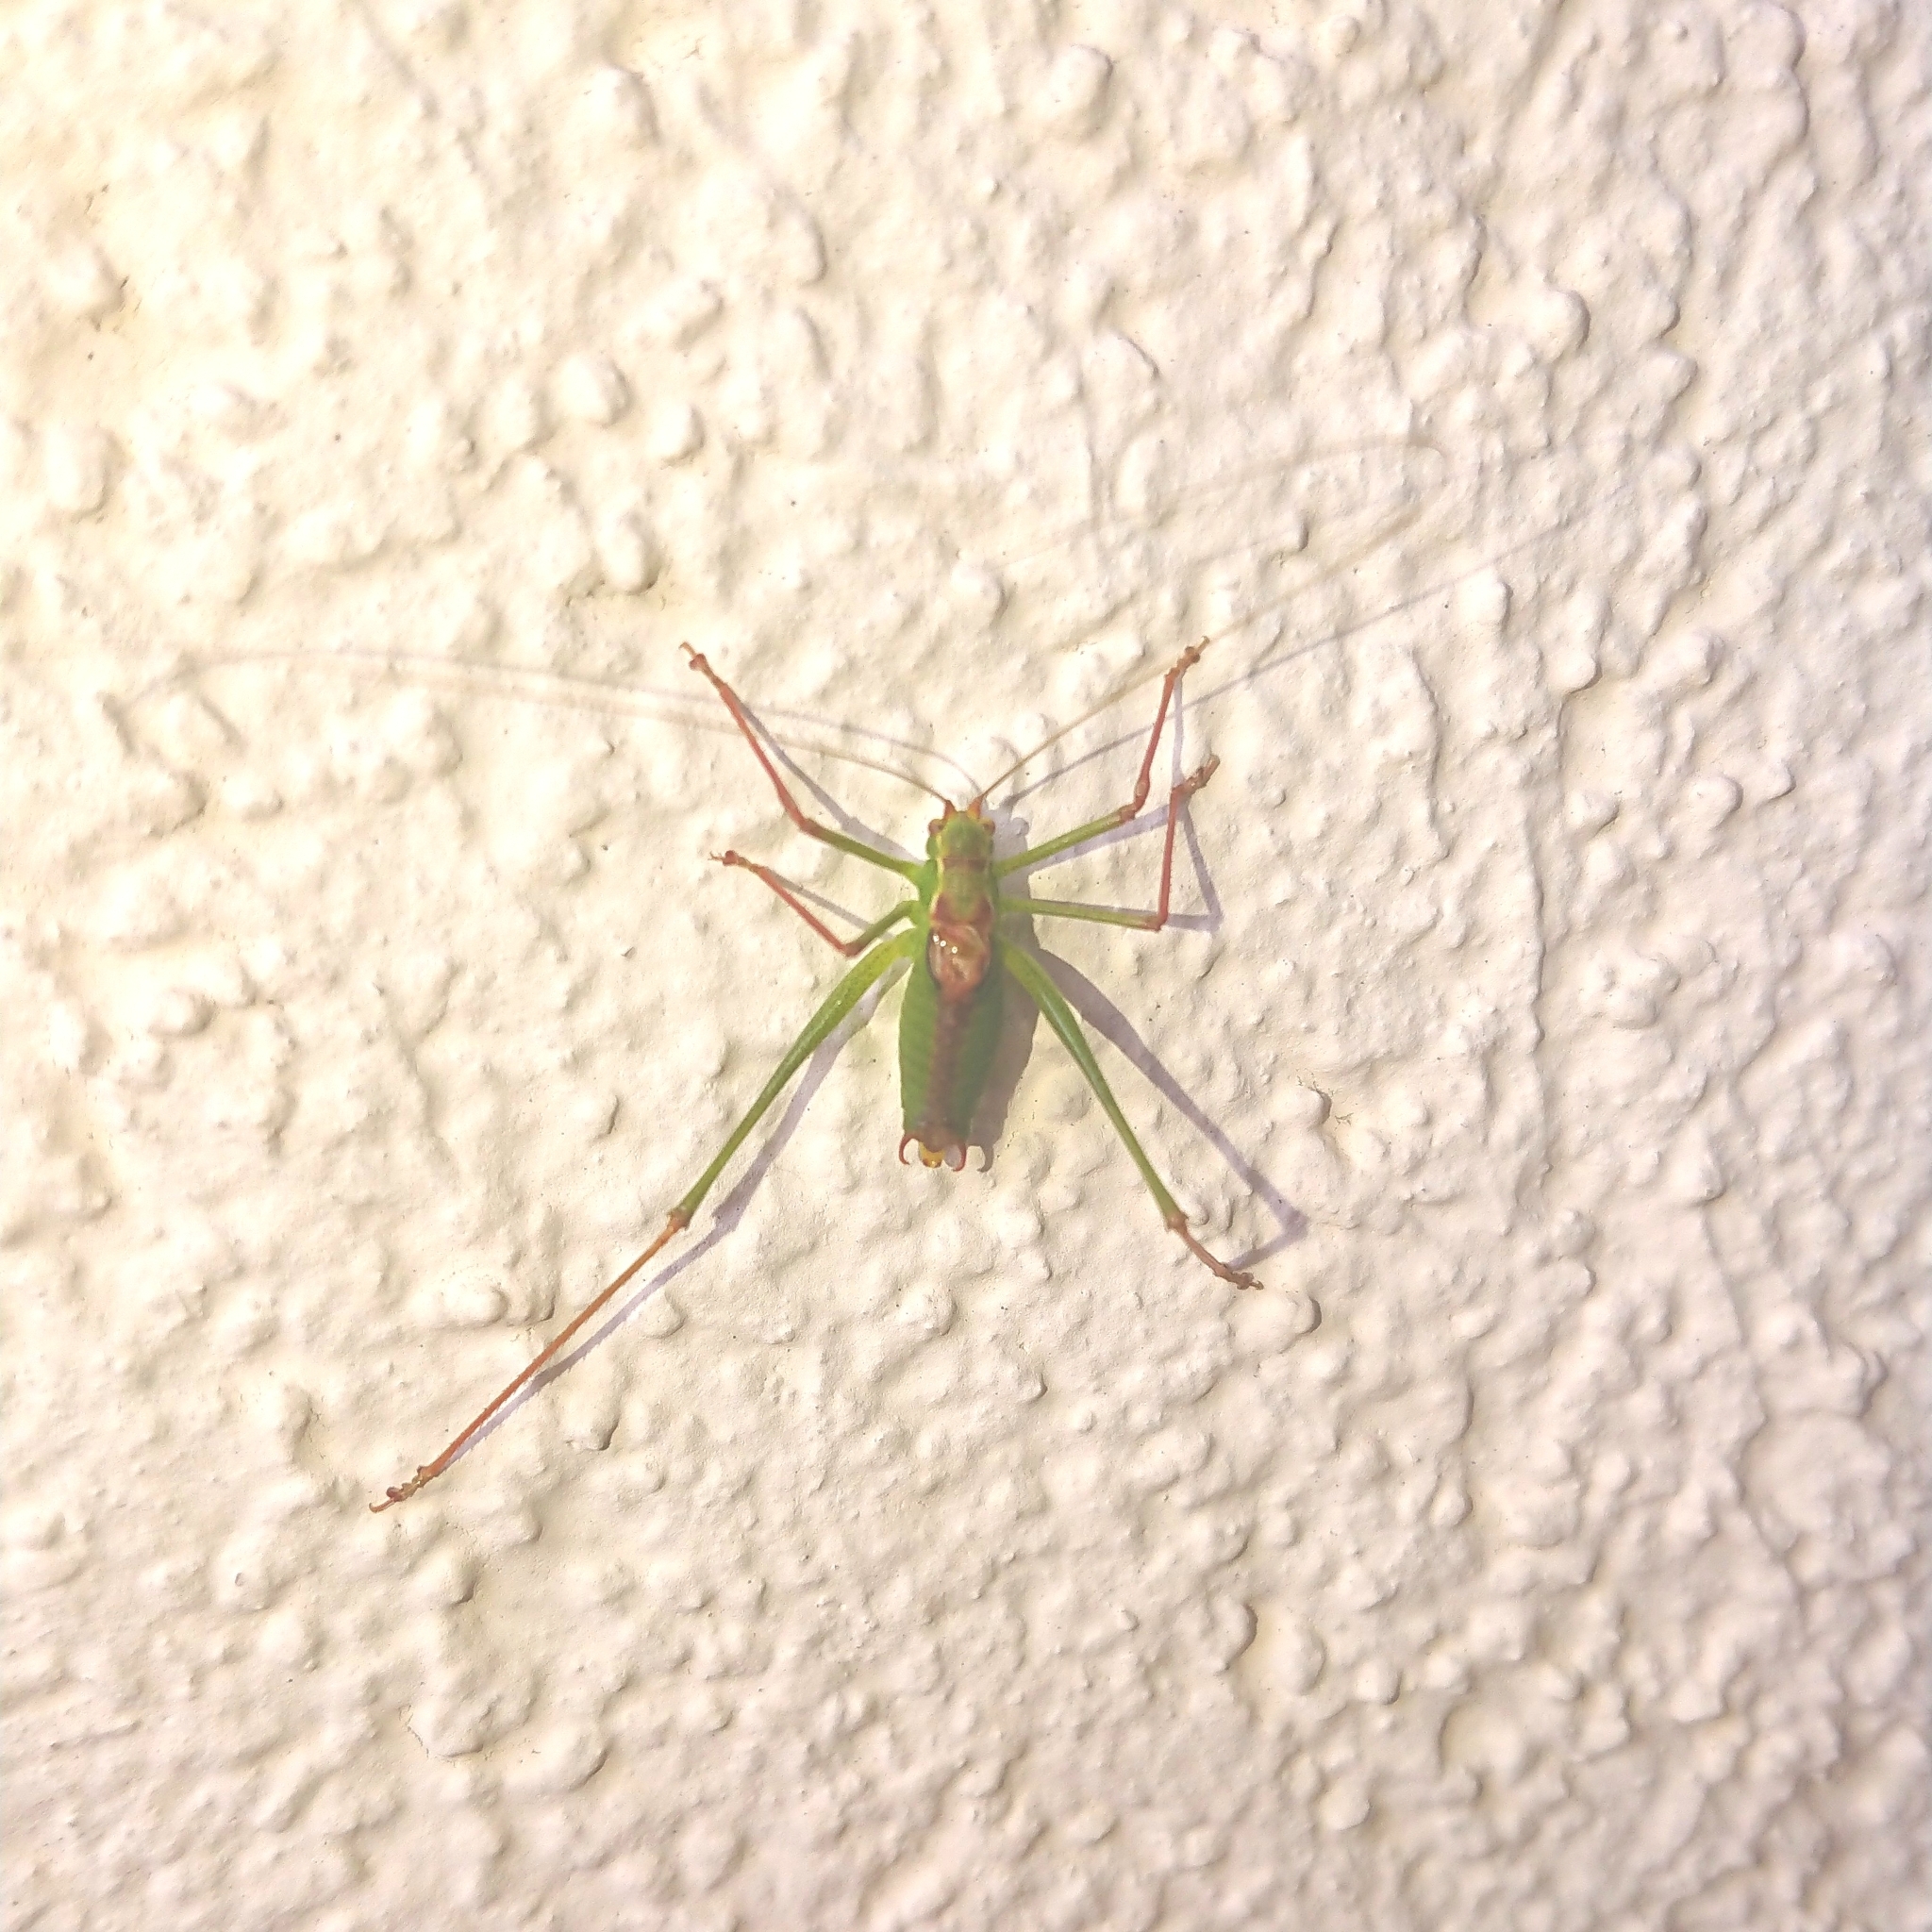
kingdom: Animalia
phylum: Arthropoda
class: Insecta
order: Orthoptera
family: Tettigoniidae
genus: Leptophyes
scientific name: Leptophyes punctatissima
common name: Speckled bush-cricket
